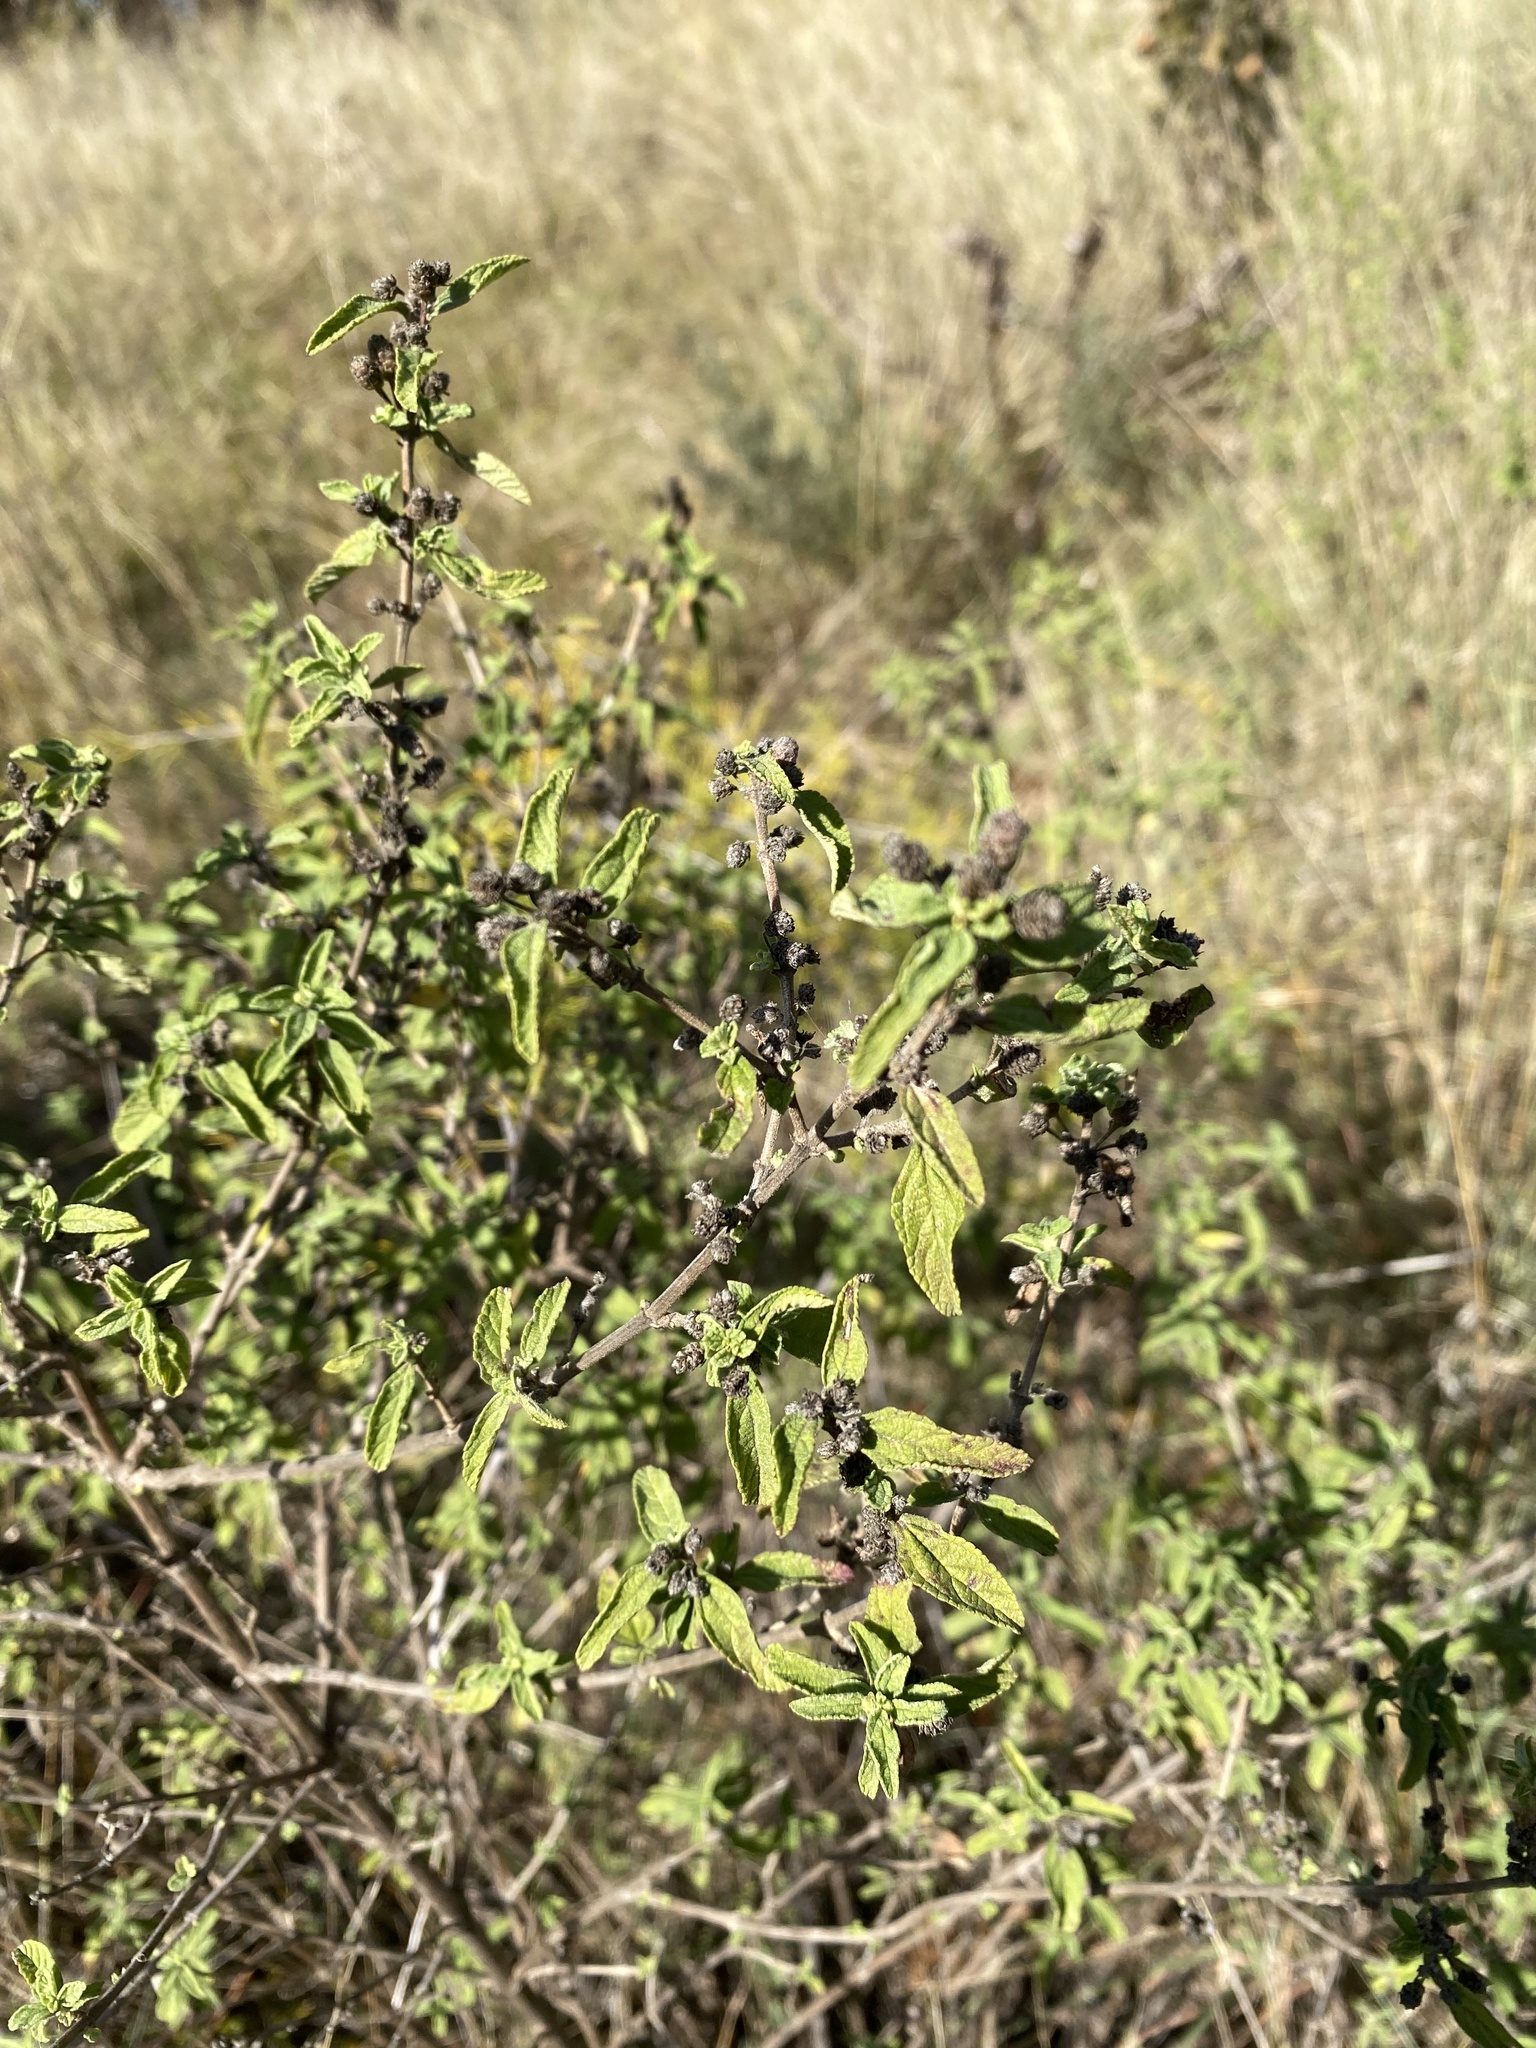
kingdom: Plantae
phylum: Tracheophyta
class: Magnoliopsida
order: Lamiales
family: Verbenaceae
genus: Lippia
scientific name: Lippia javanica
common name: Lemonbush
